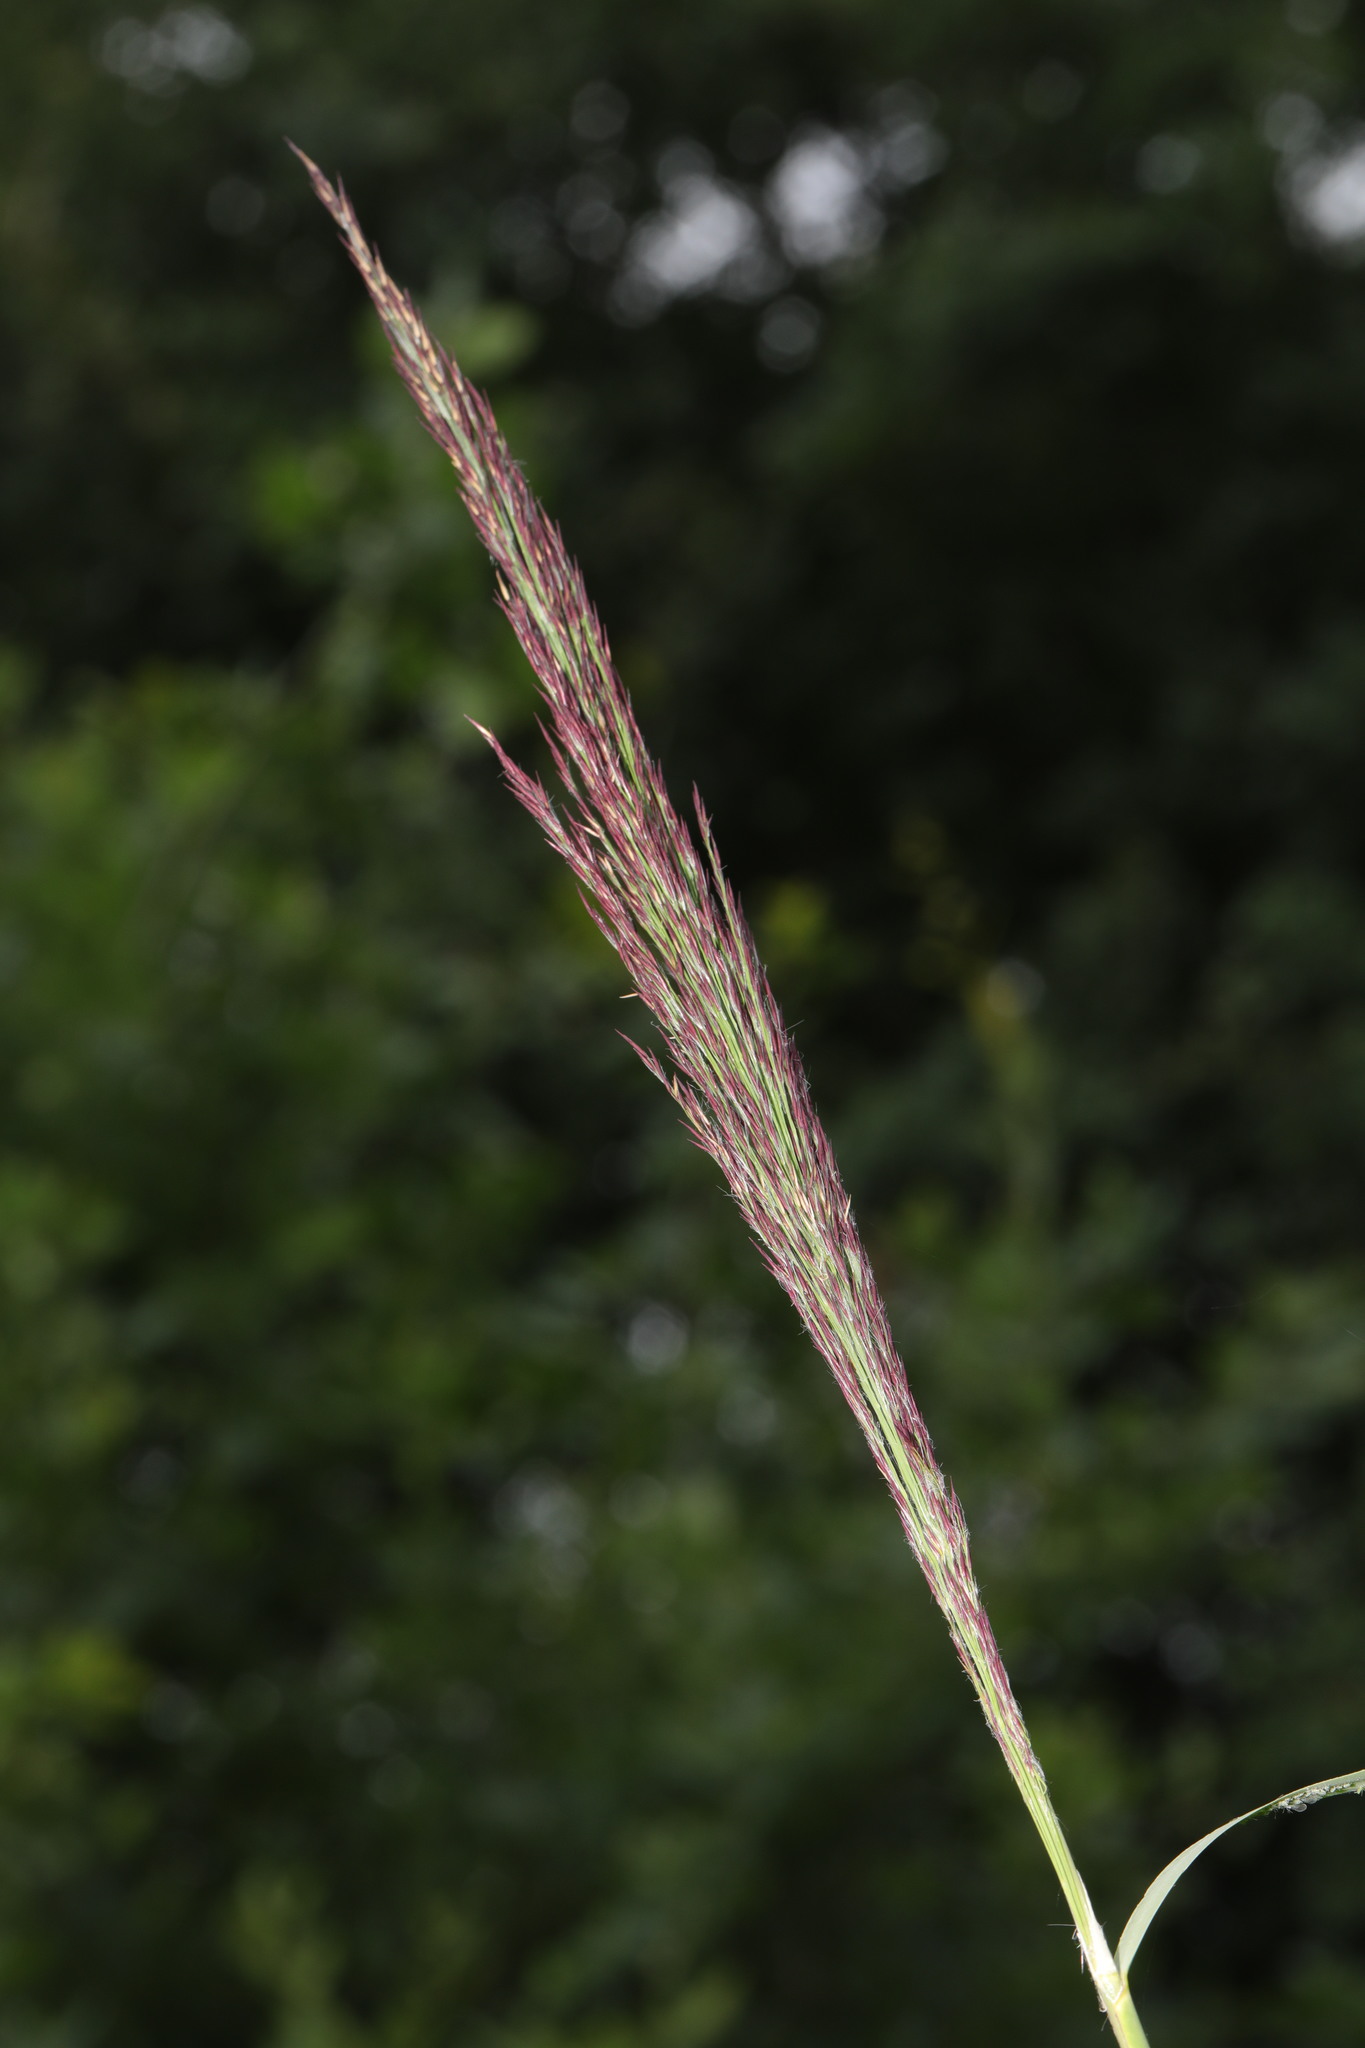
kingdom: Plantae
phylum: Tracheophyta
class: Liliopsida
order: Poales
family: Poaceae
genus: Phragmites
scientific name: Phragmites australis
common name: Common reed
